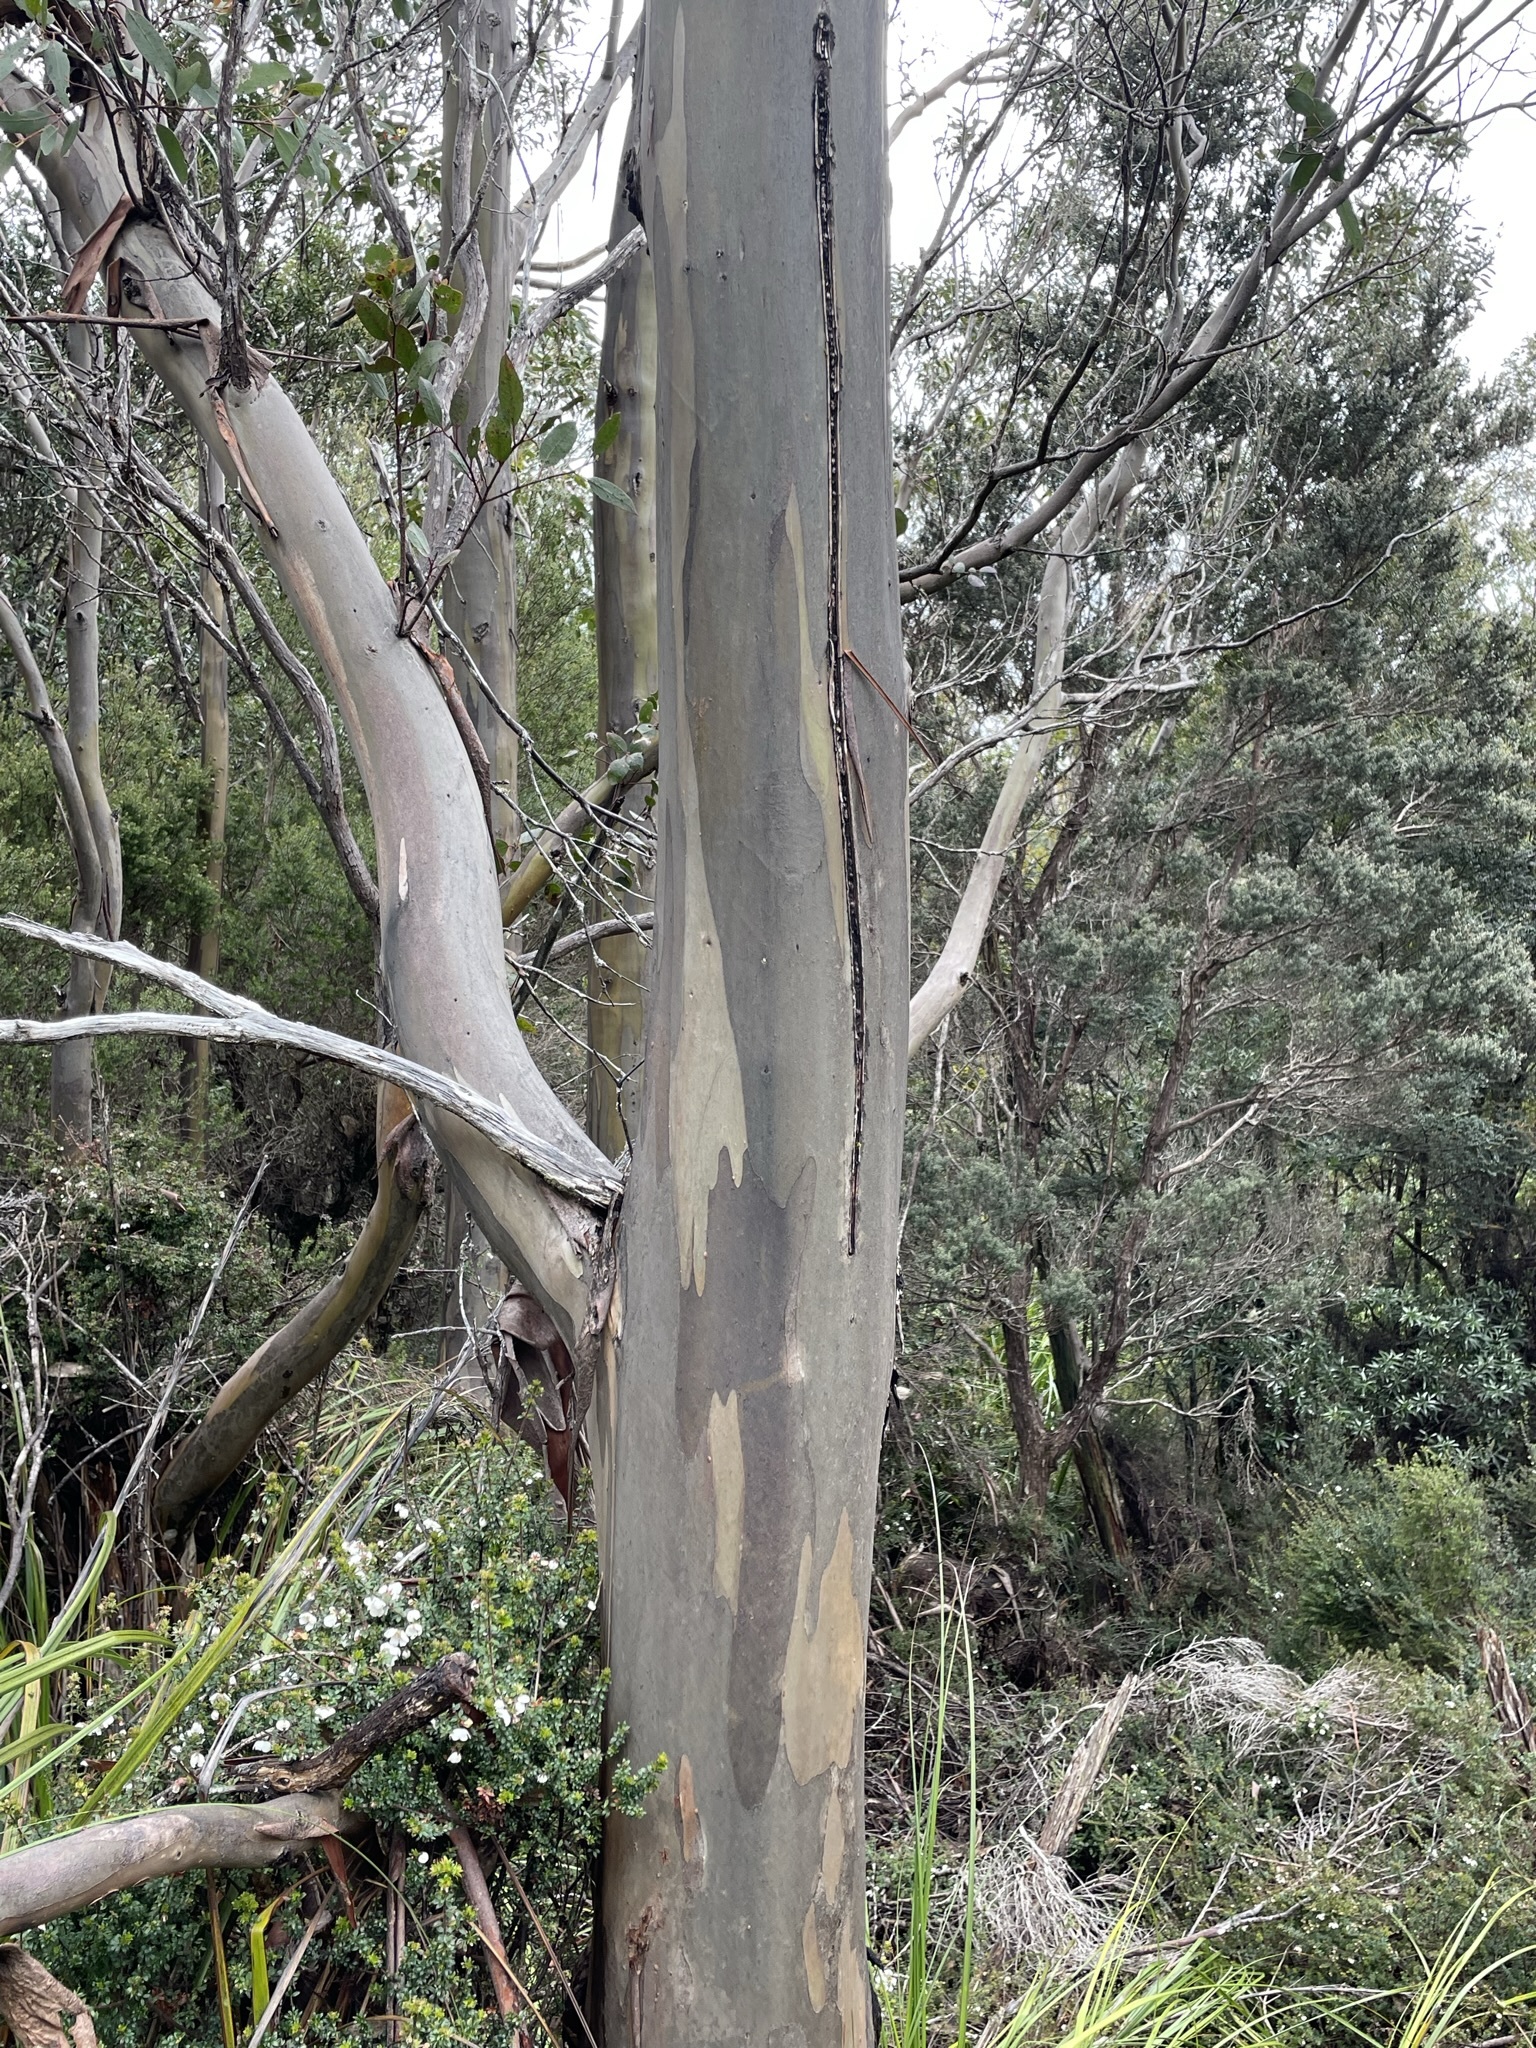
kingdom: Plantae
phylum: Tracheophyta
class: Magnoliopsida
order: Myrtales
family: Myrtaceae
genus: Eucalyptus
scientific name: Eucalyptus johnstonii
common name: Johnston's gum
